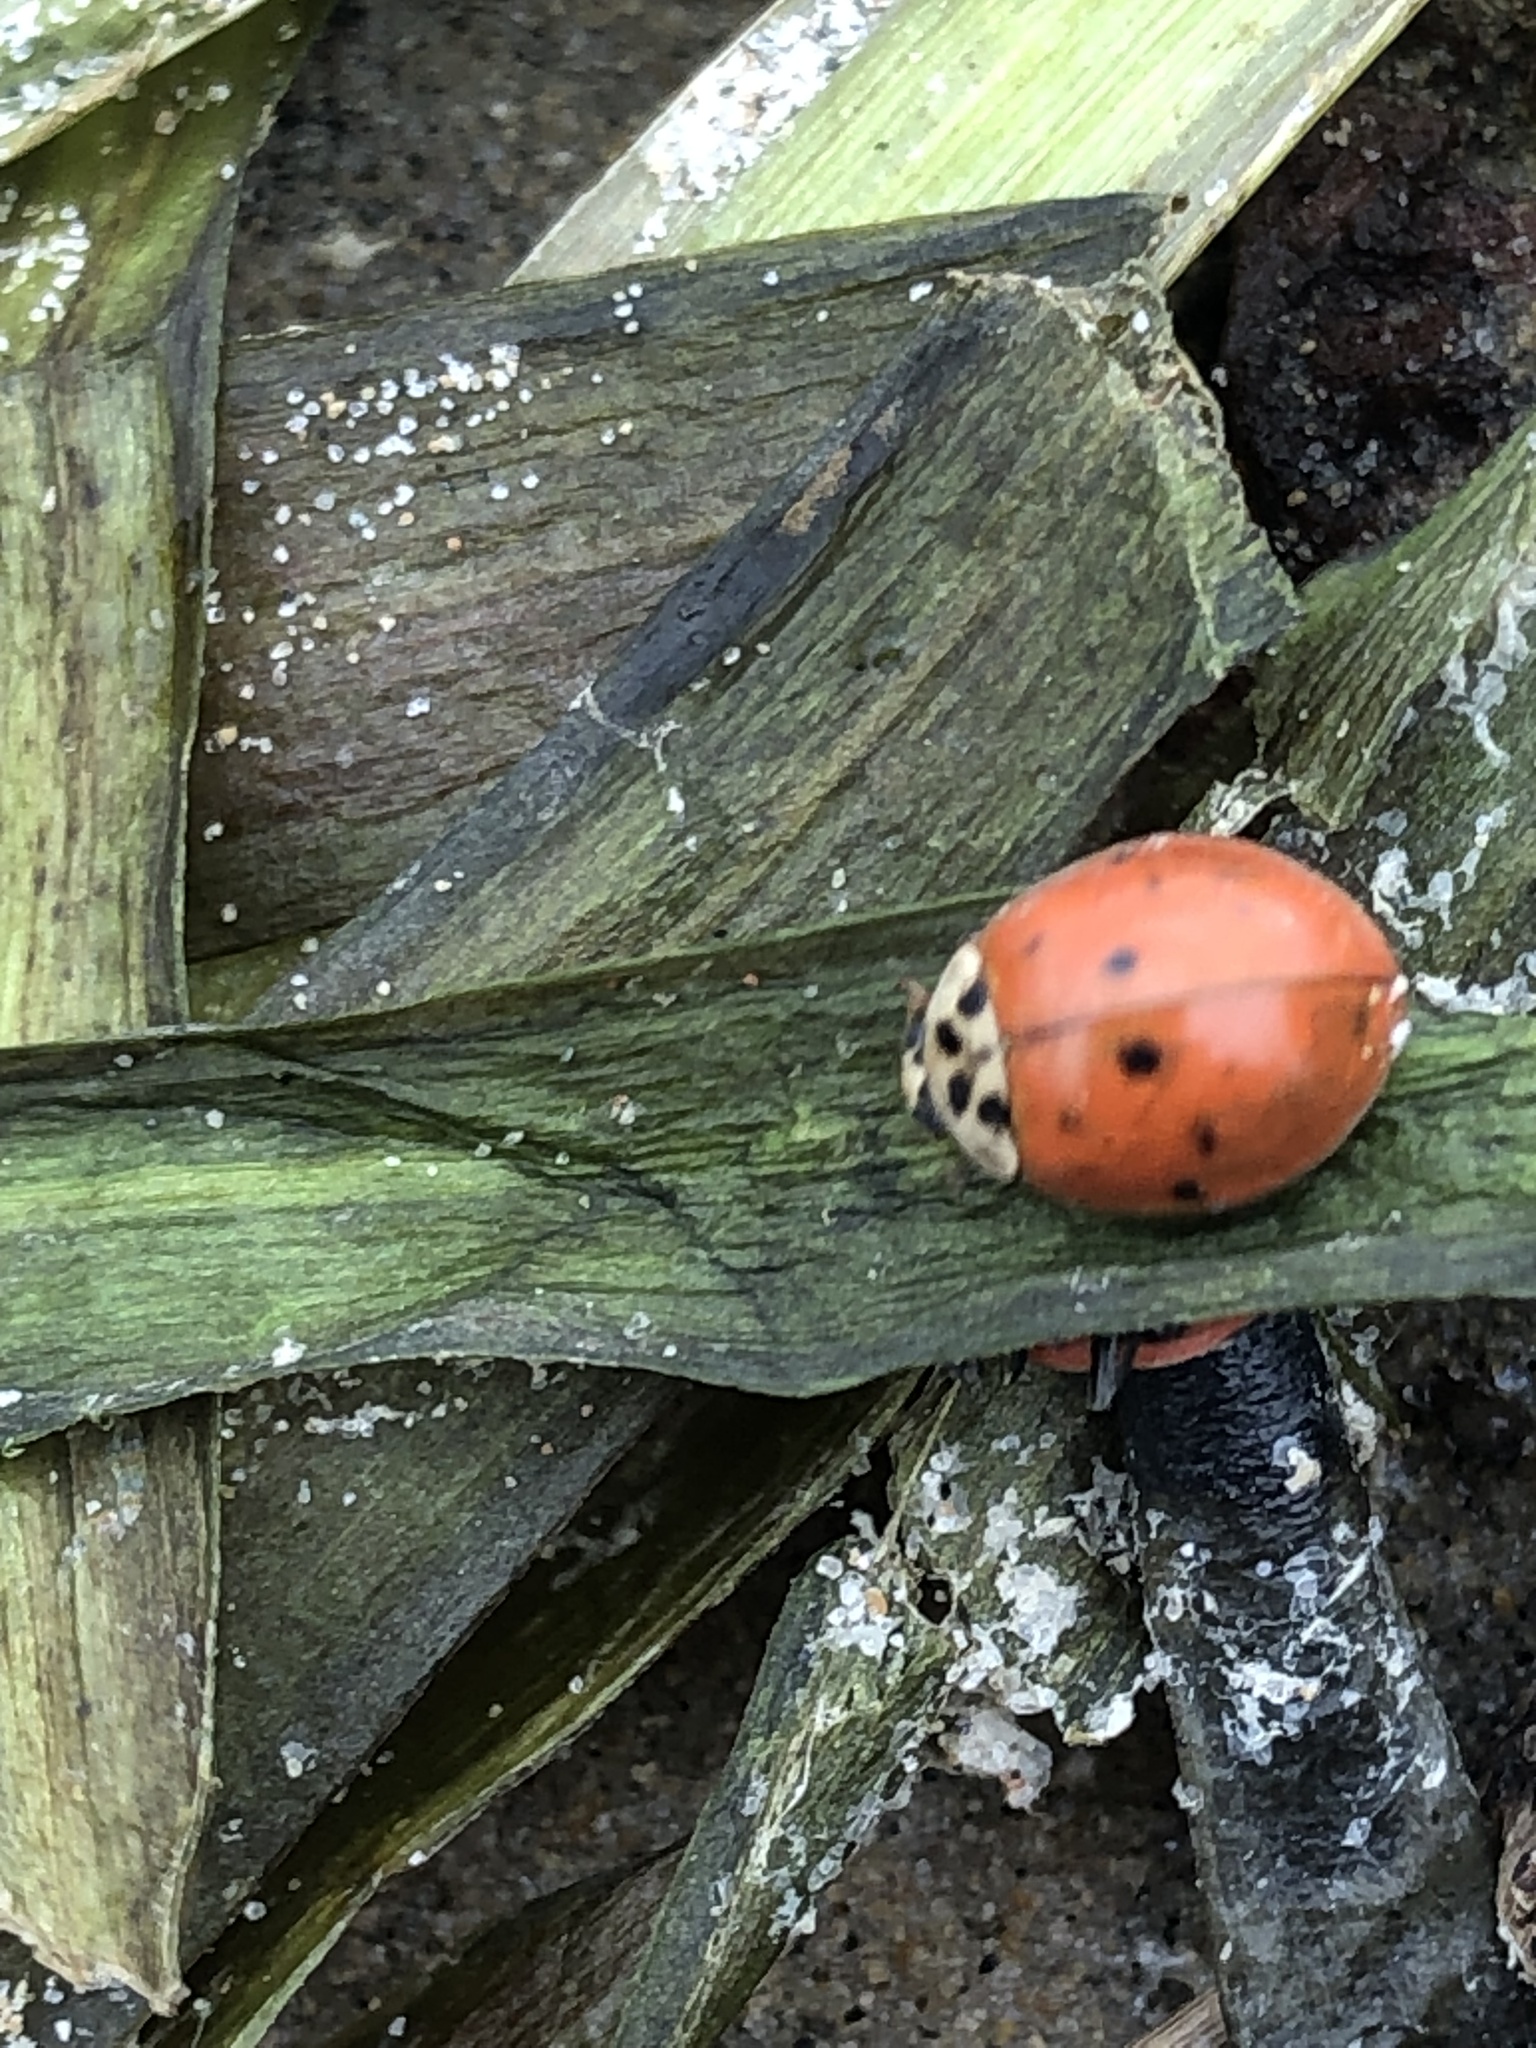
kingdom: Animalia
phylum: Arthropoda
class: Insecta
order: Coleoptera
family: Coccinellidae
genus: Harmonia
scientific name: Harmonia axyridis
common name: Harlequin ladybird
